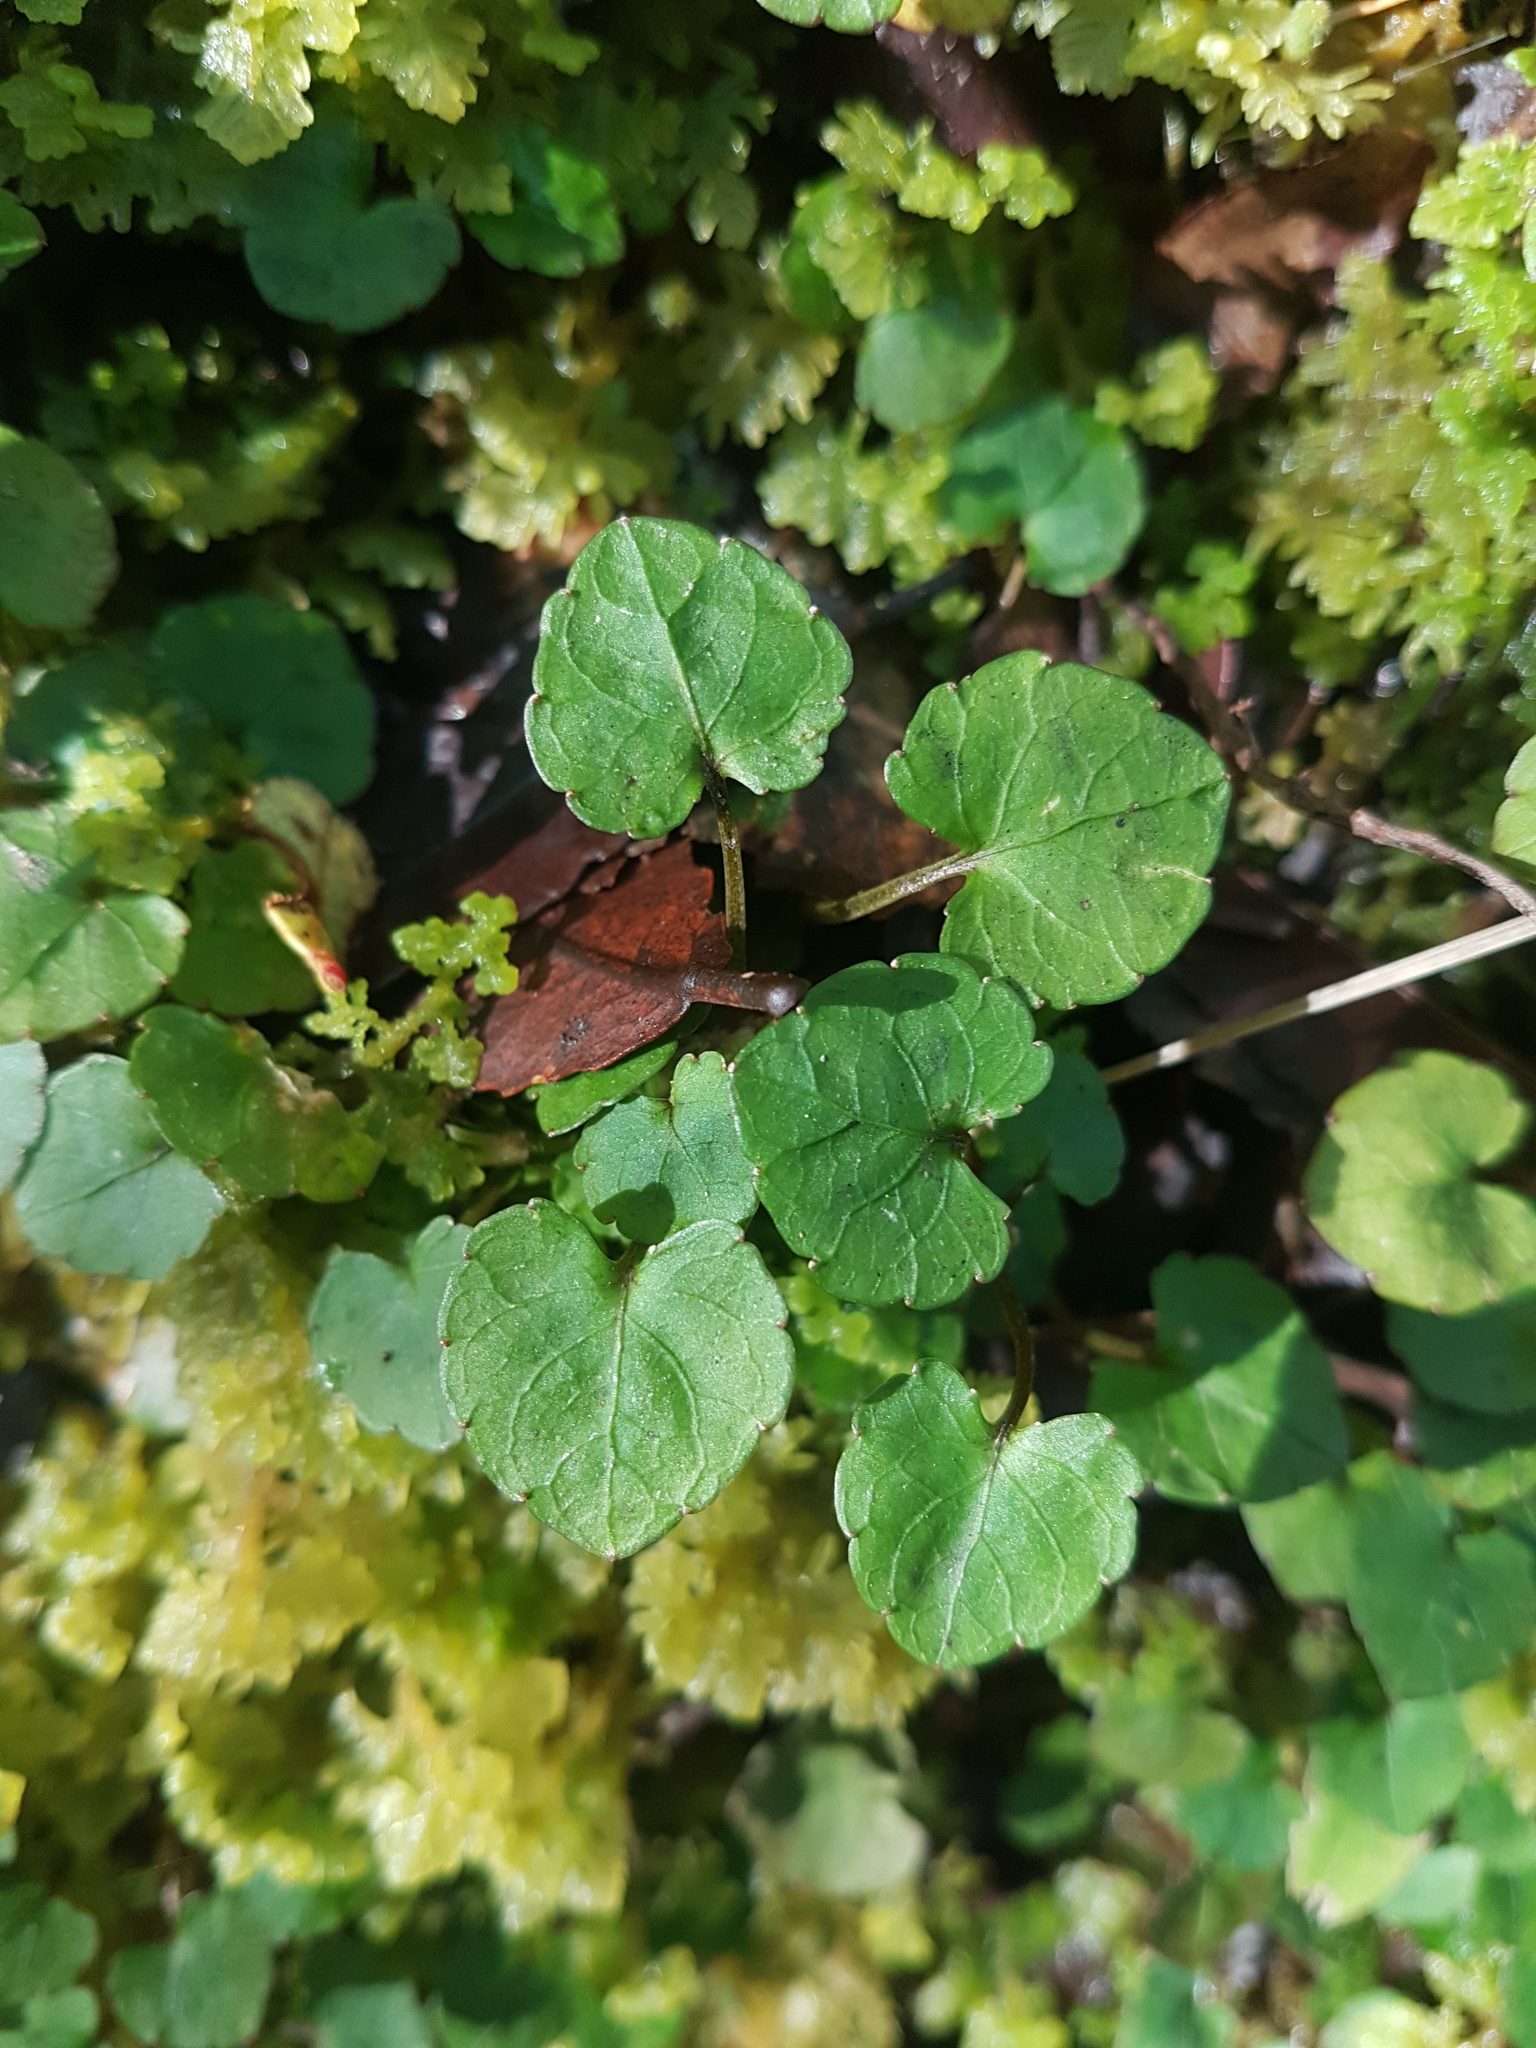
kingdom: Plantae
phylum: Tracheophyta
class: Magnoliopsida
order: Malpighiales
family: Violaceae
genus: Viola
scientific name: Viola filicaulis
